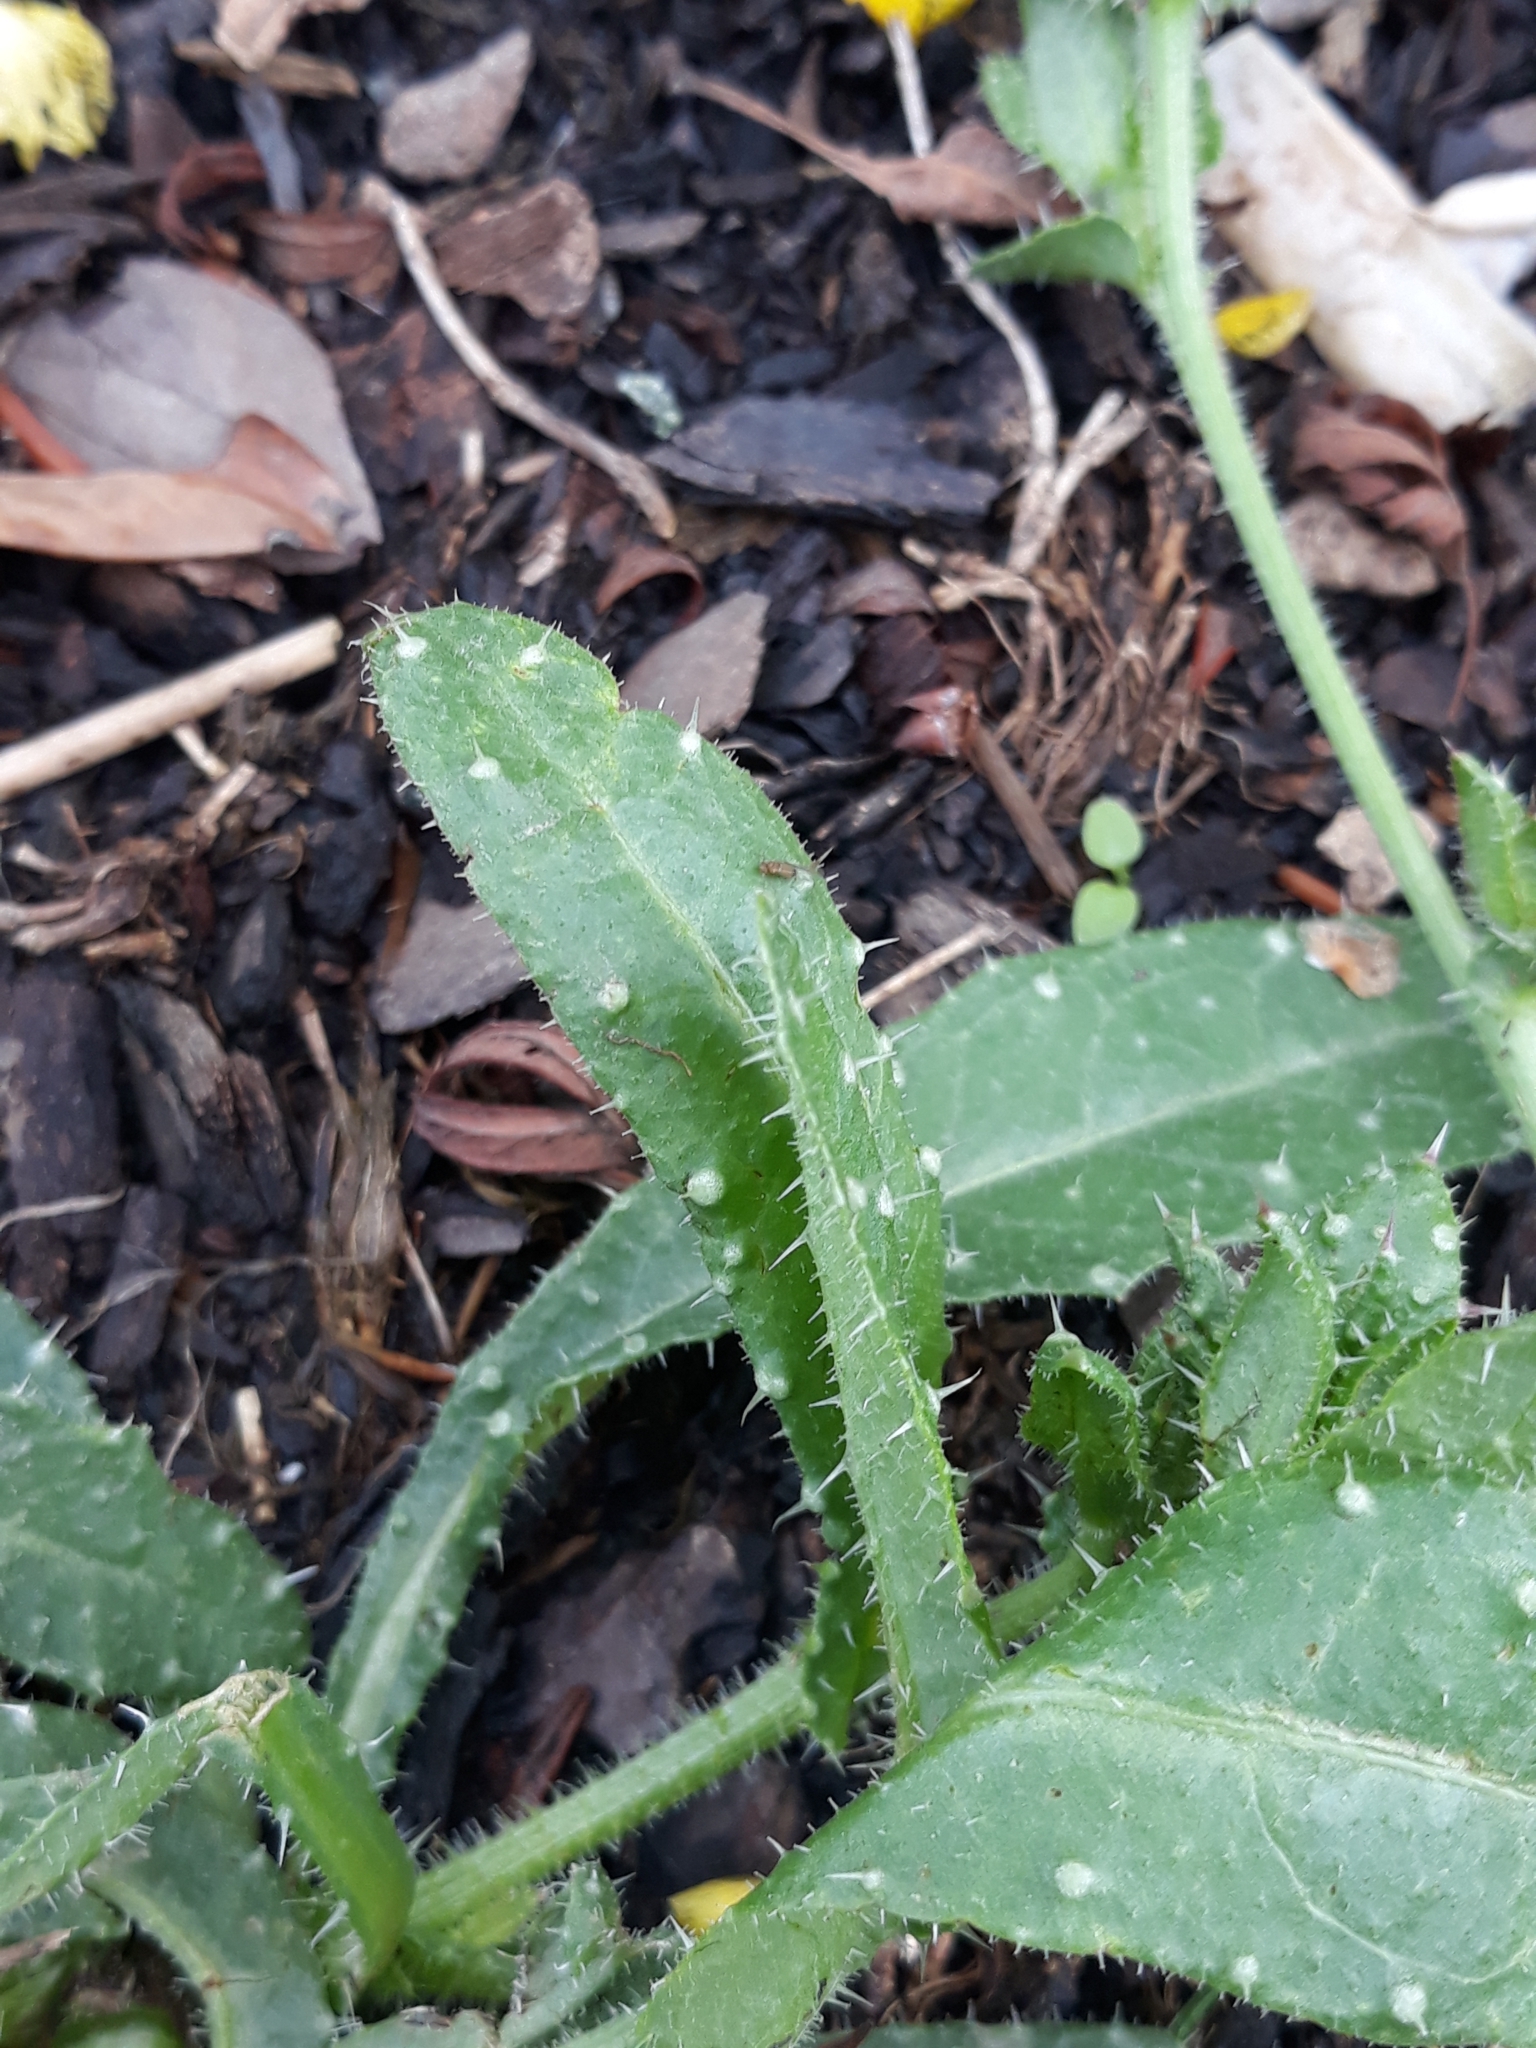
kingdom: Plantae
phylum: Tracheophyta
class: Magnoliopsida
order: Asterales
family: Asteraceae
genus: Helminthotheca
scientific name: Helminthotheca echioides
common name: Ox-tongue
